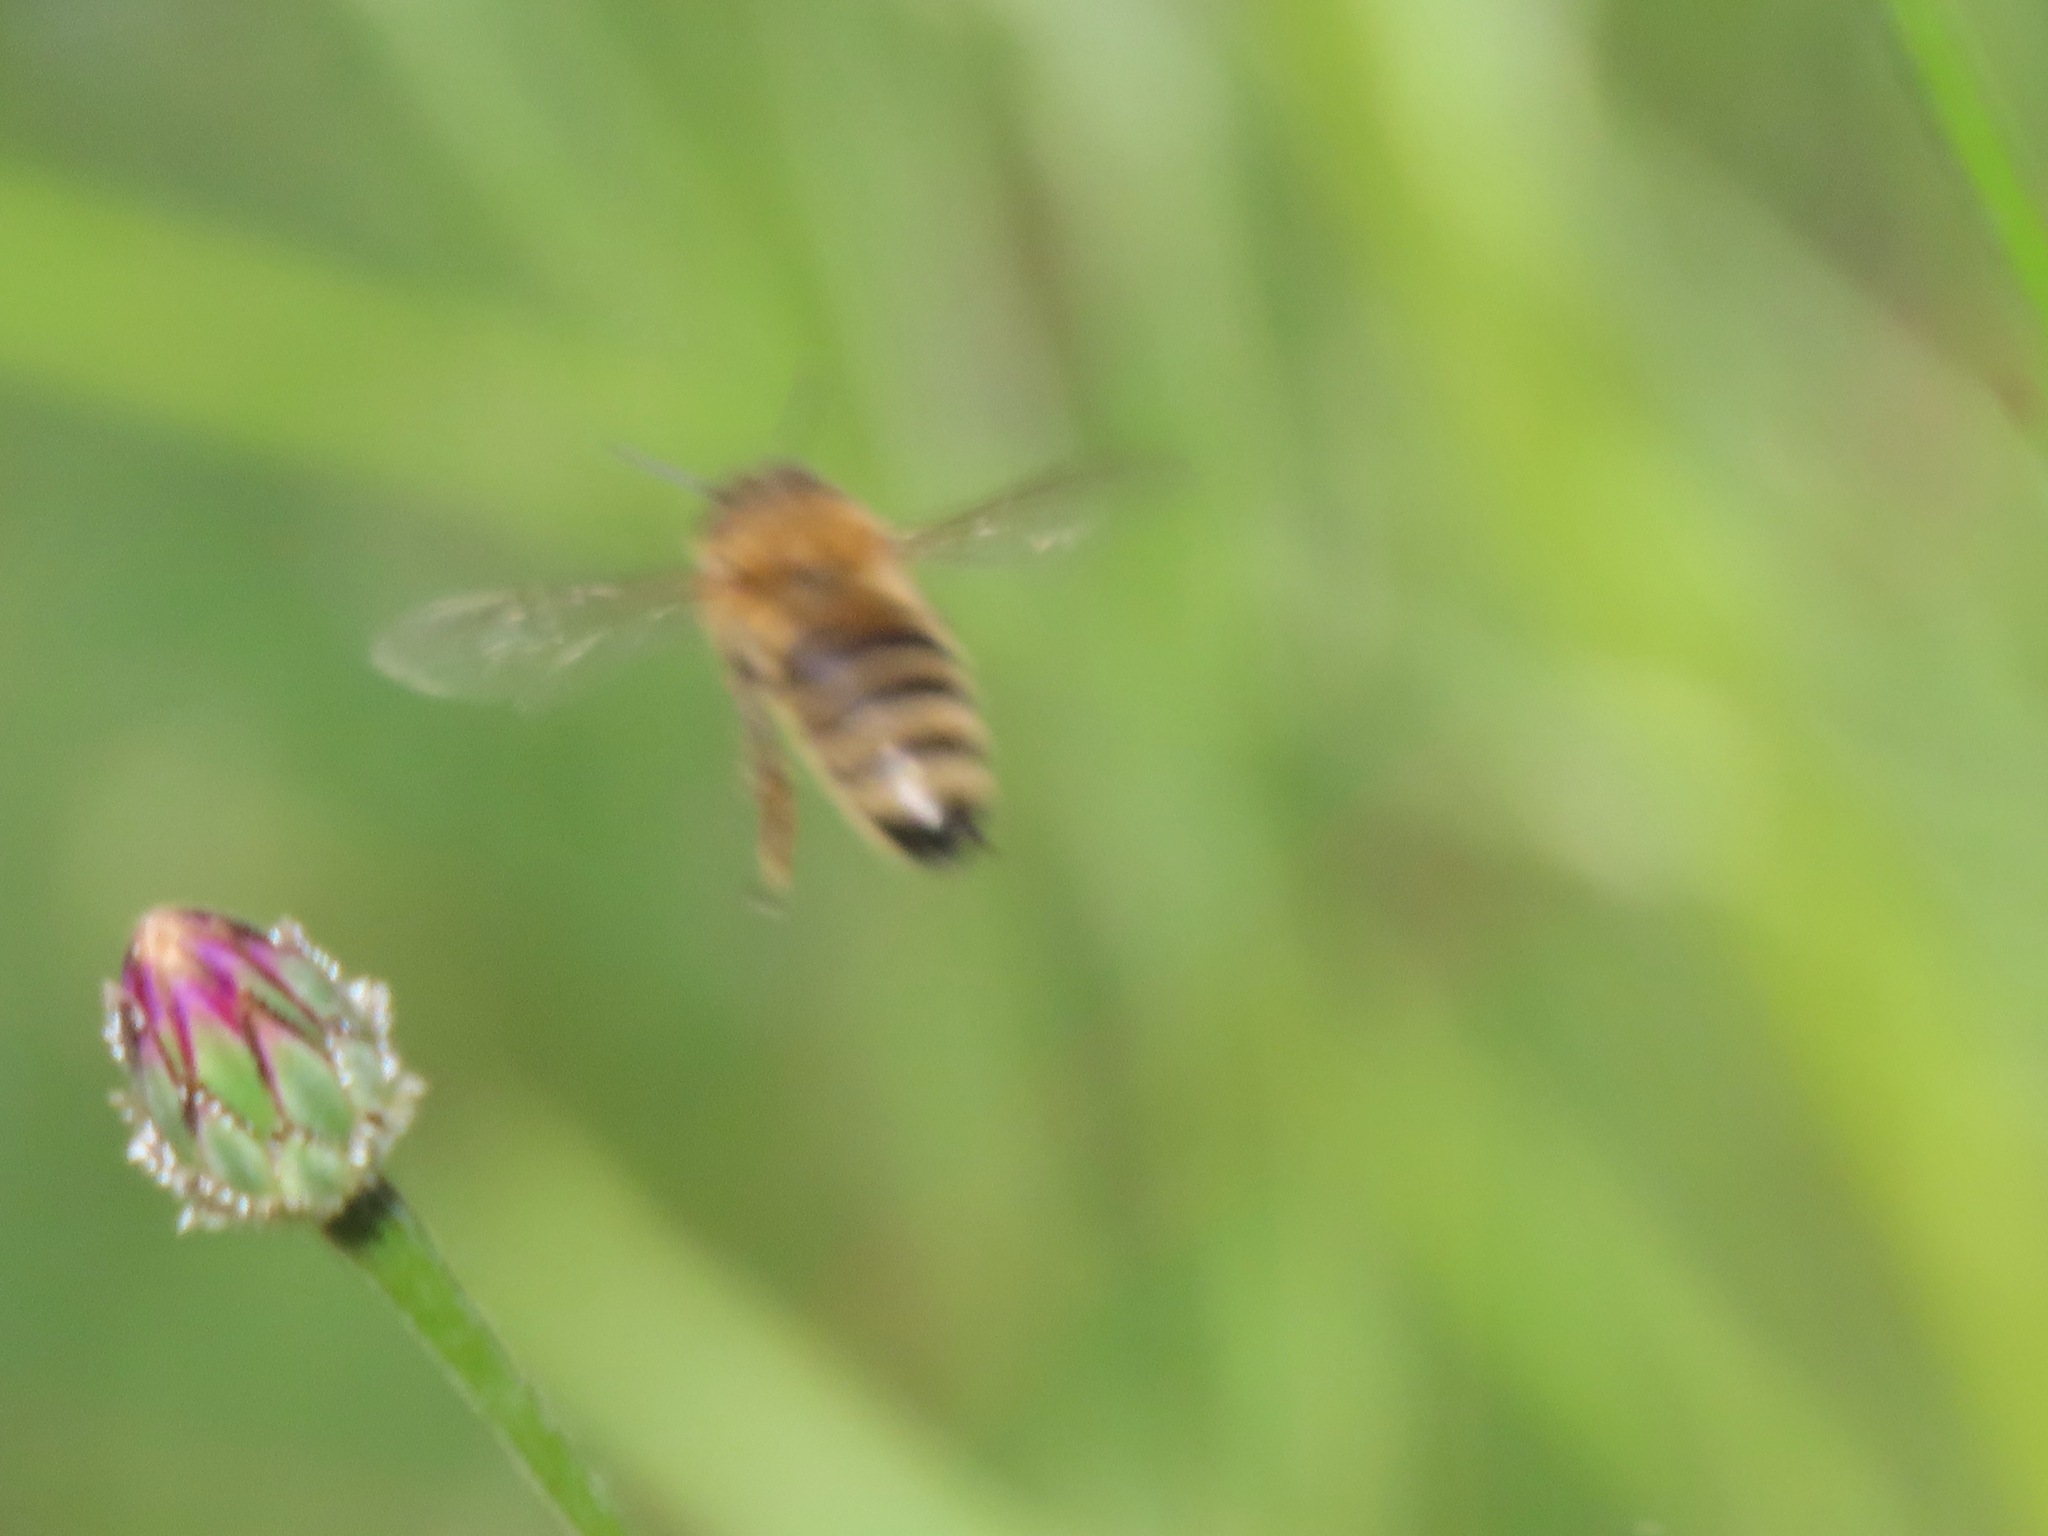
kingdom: Animalia
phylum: Arthropoda
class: Insecta
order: Hymenoptera
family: Apidae
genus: Apis
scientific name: Apis mellifera
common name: Honey bee
